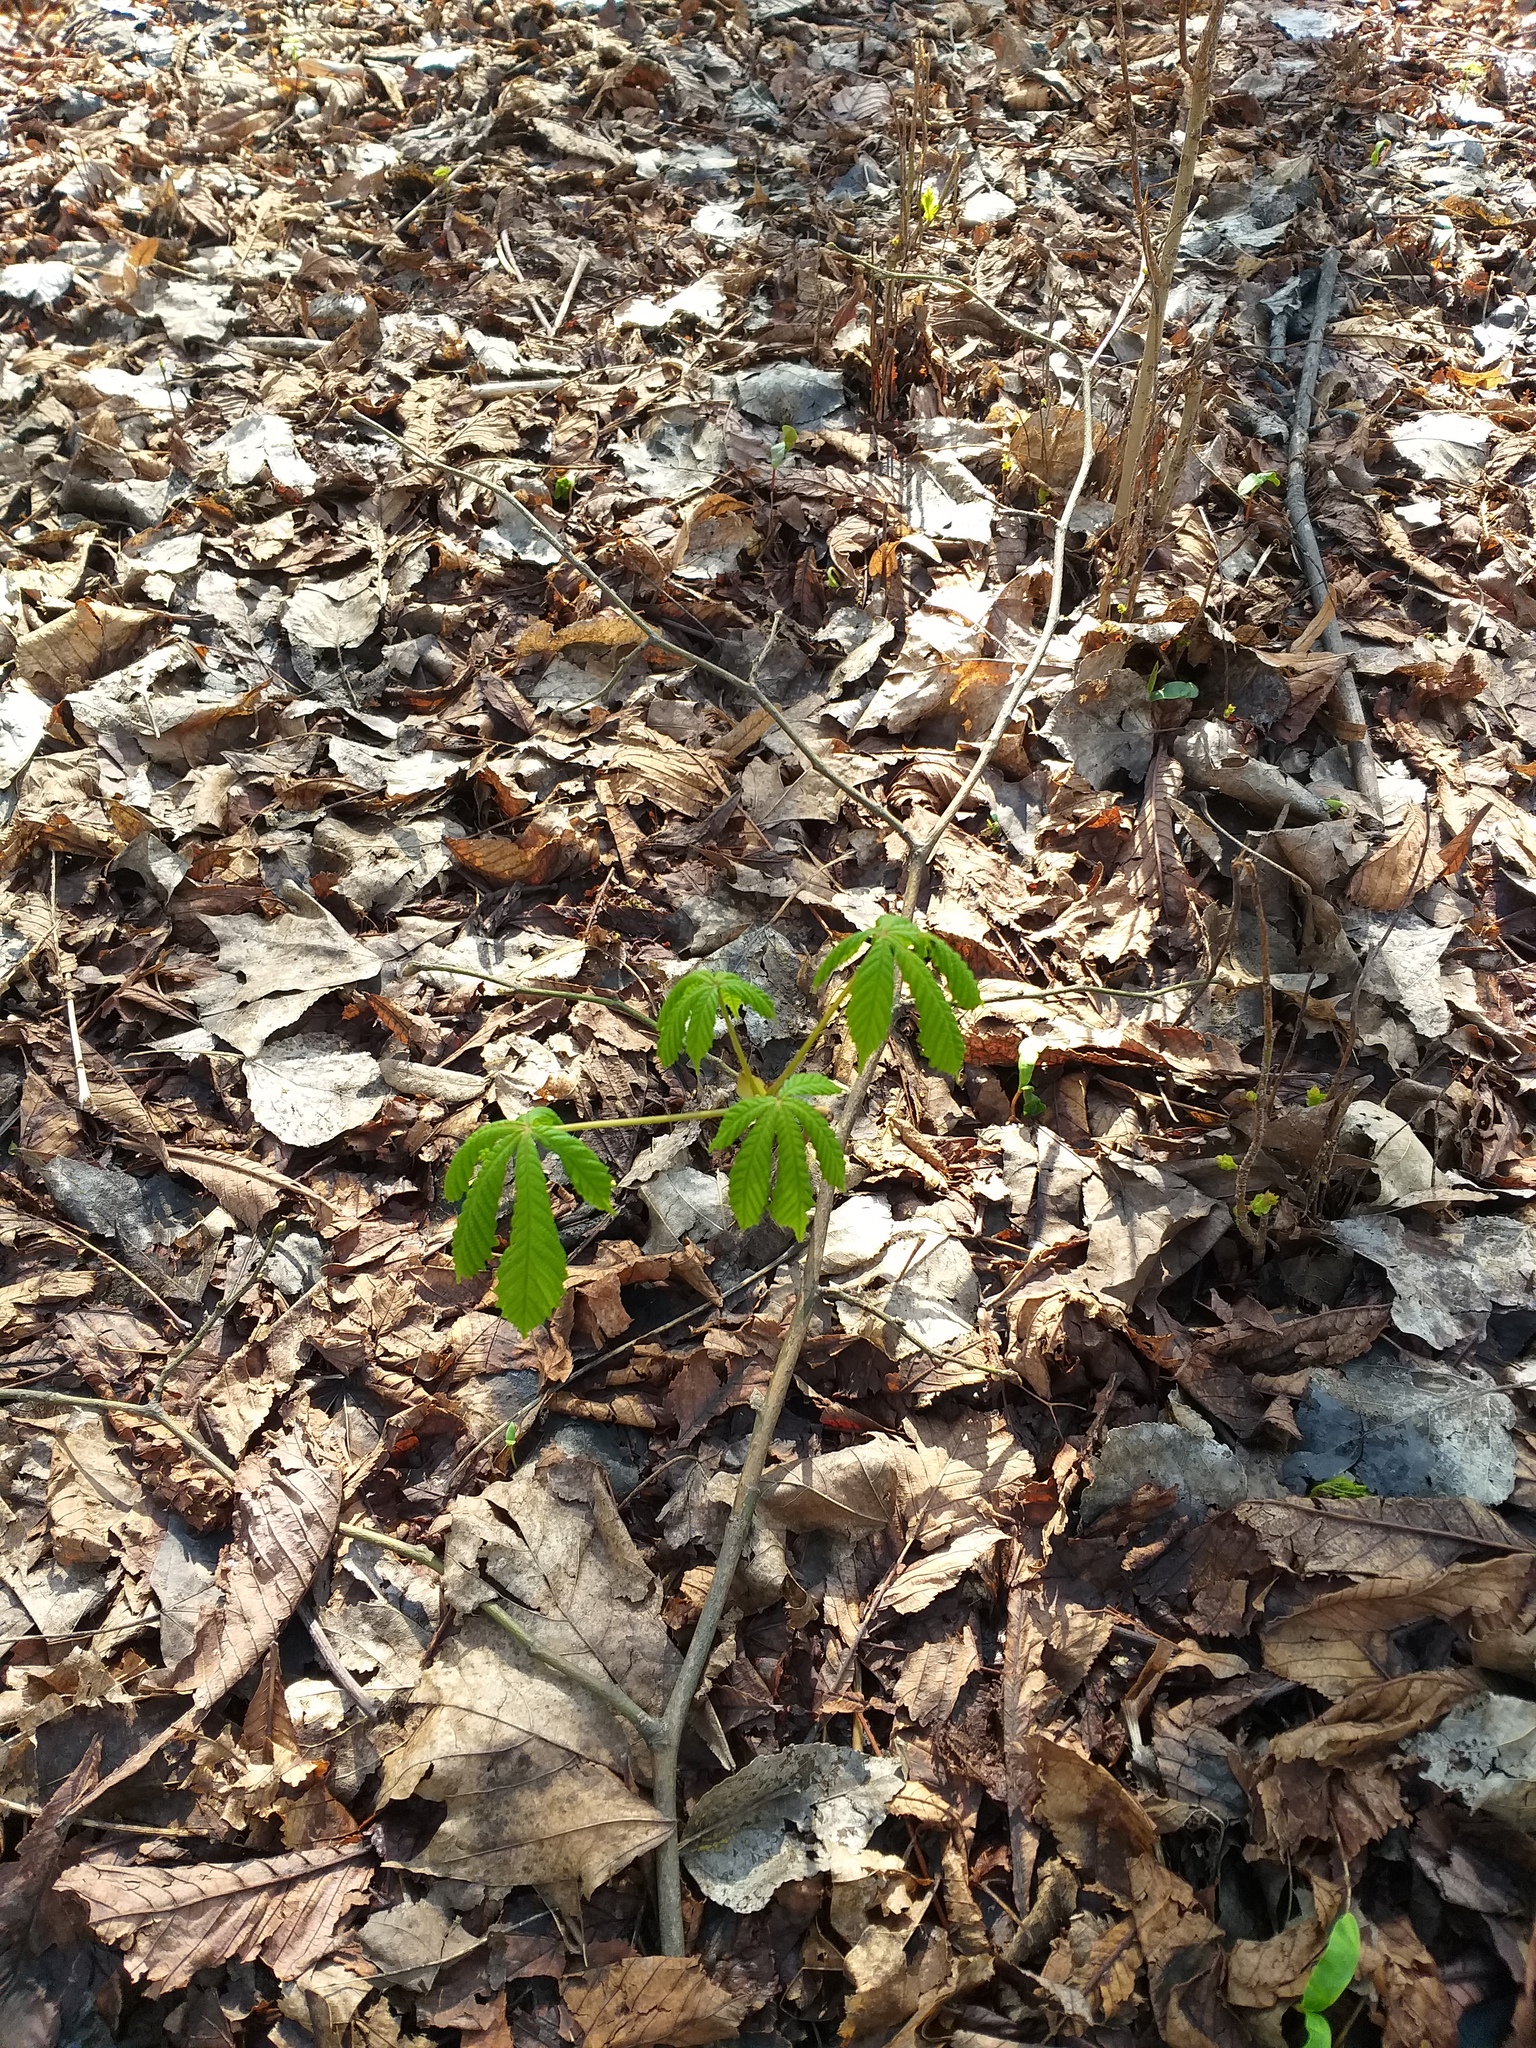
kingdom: Plantae
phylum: Tracheophyta
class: Magnoliopsida
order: Sapindales
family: Sapindaceae
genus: Aesculus
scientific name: Aesculus hippocastanum
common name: Horse-chestnut
